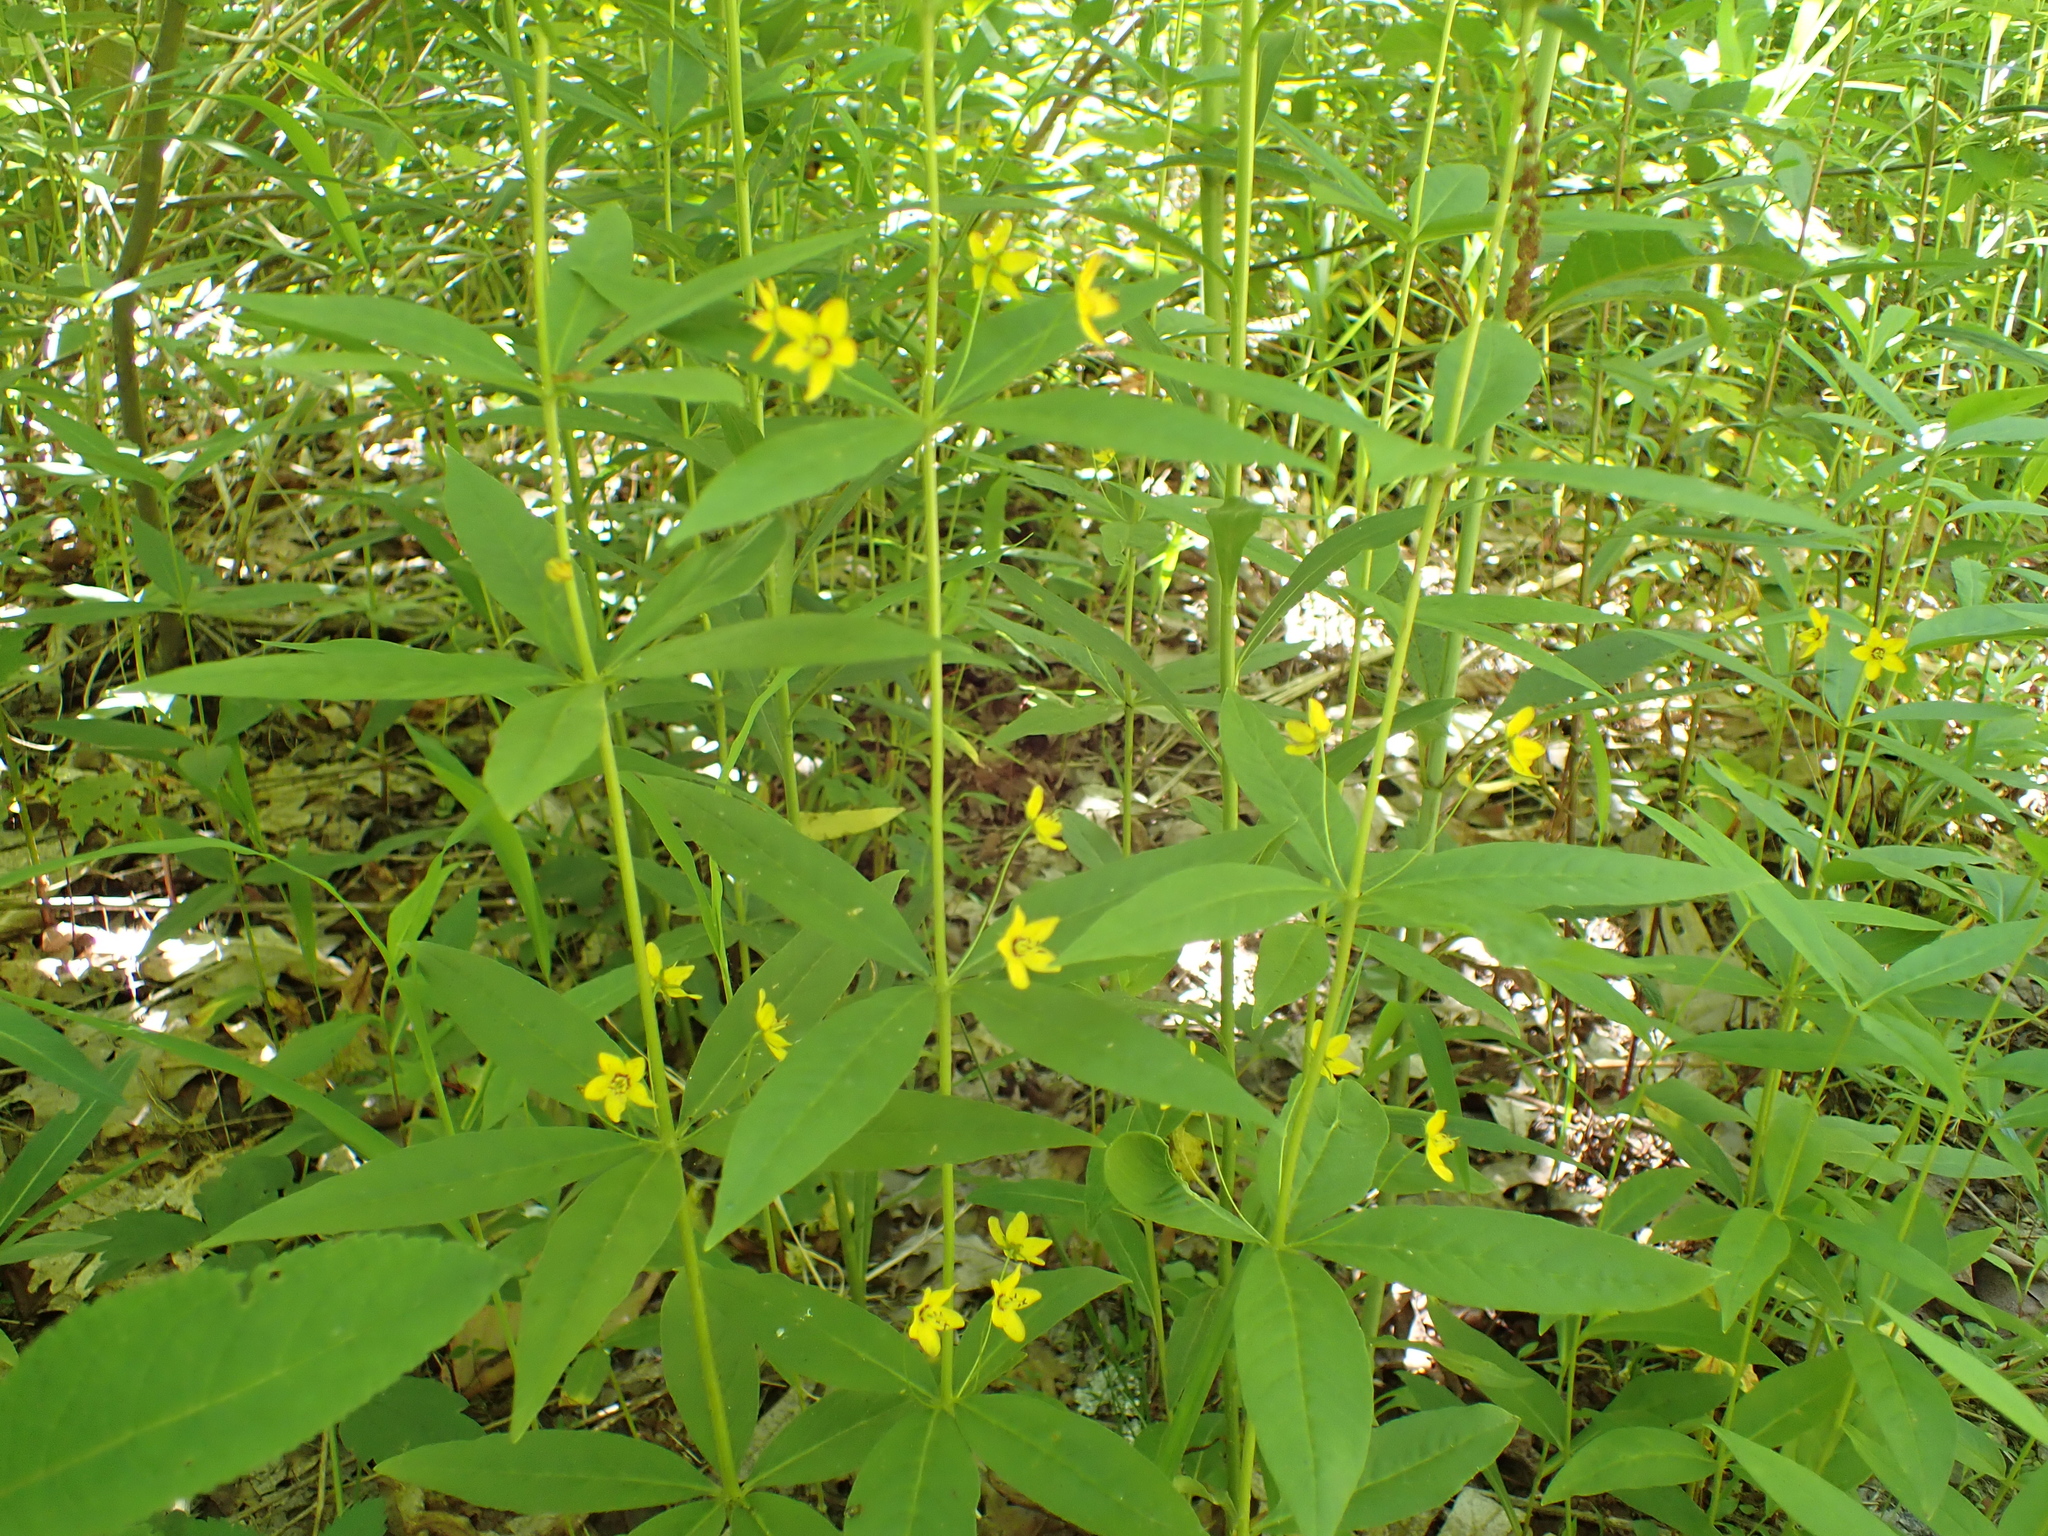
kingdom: Plantae
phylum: Tracheophyta
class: Magnoliopsida
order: Ericales
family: Primulaceae
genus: Lysimachia
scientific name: Lysimachia quadrifolia
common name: Whorled loosestrife
